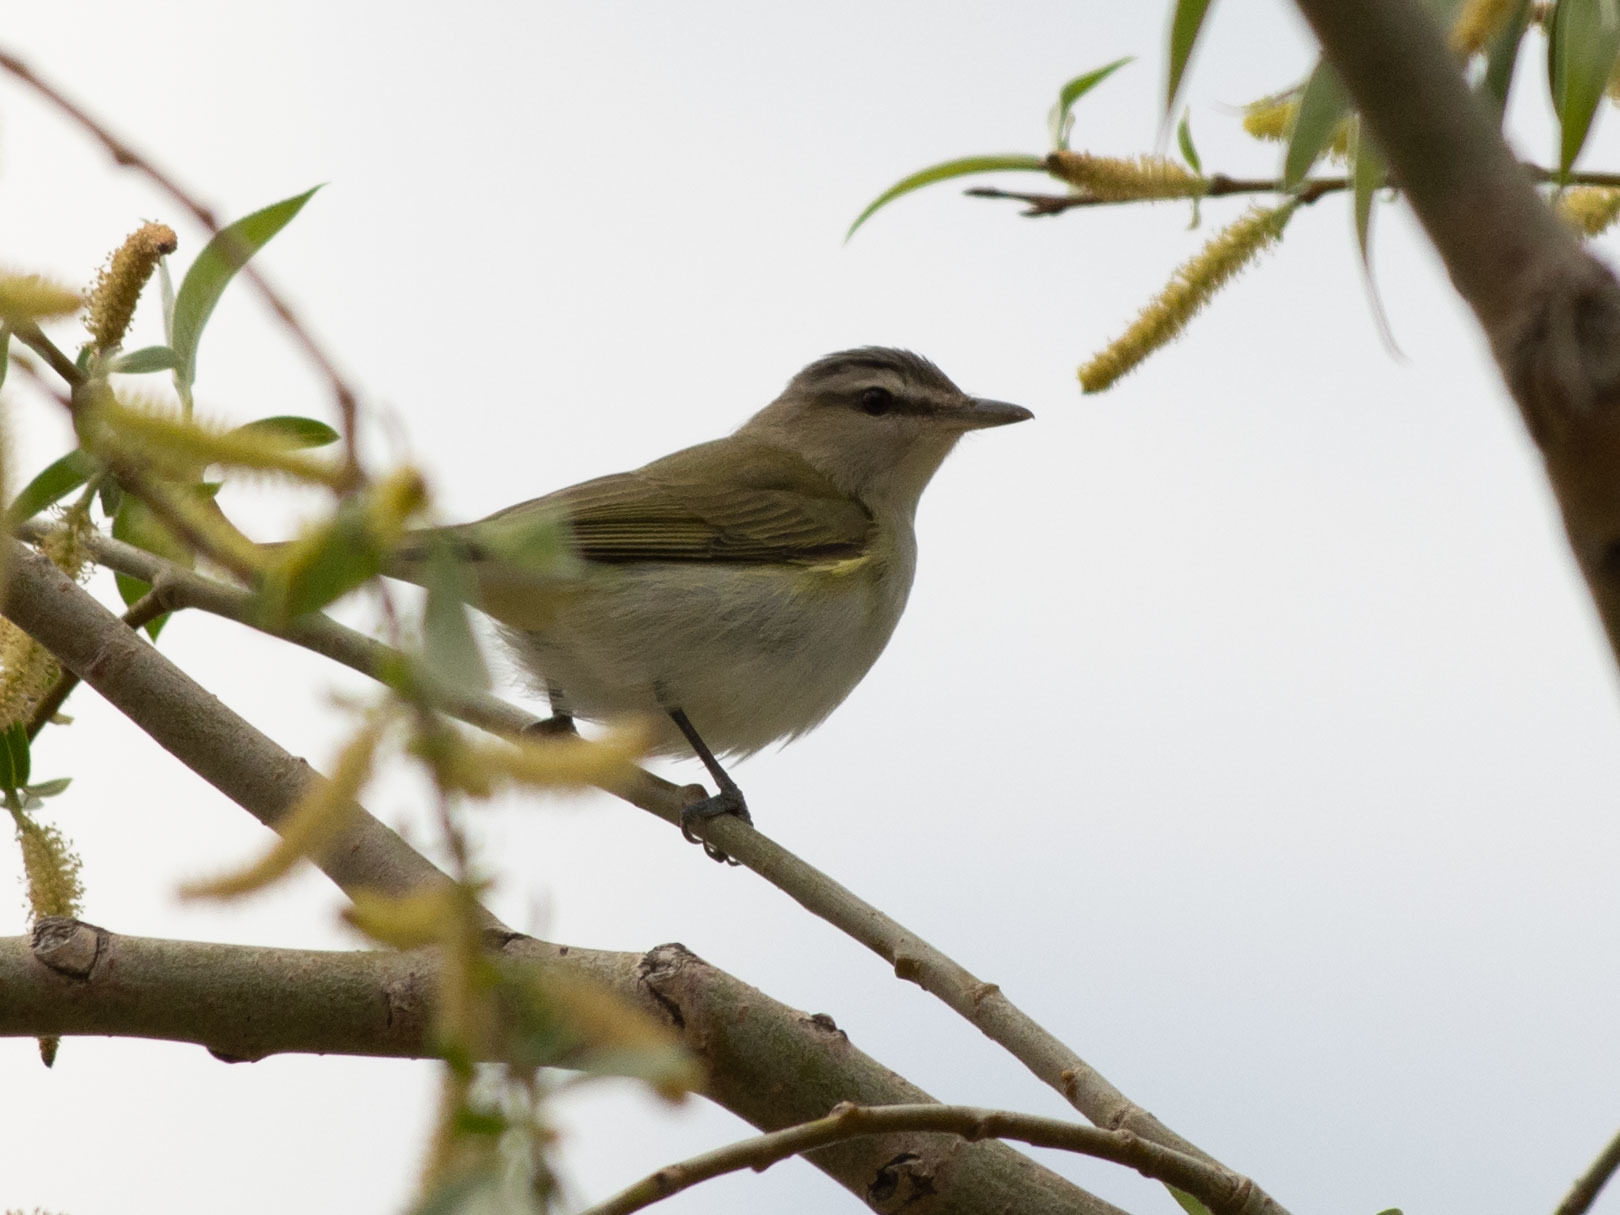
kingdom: Animalia
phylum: Chordata
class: Aves
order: Passeriformes
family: Vireonidae
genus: Vireo
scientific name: Vireo olivaceus
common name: Red-eyed vireo
